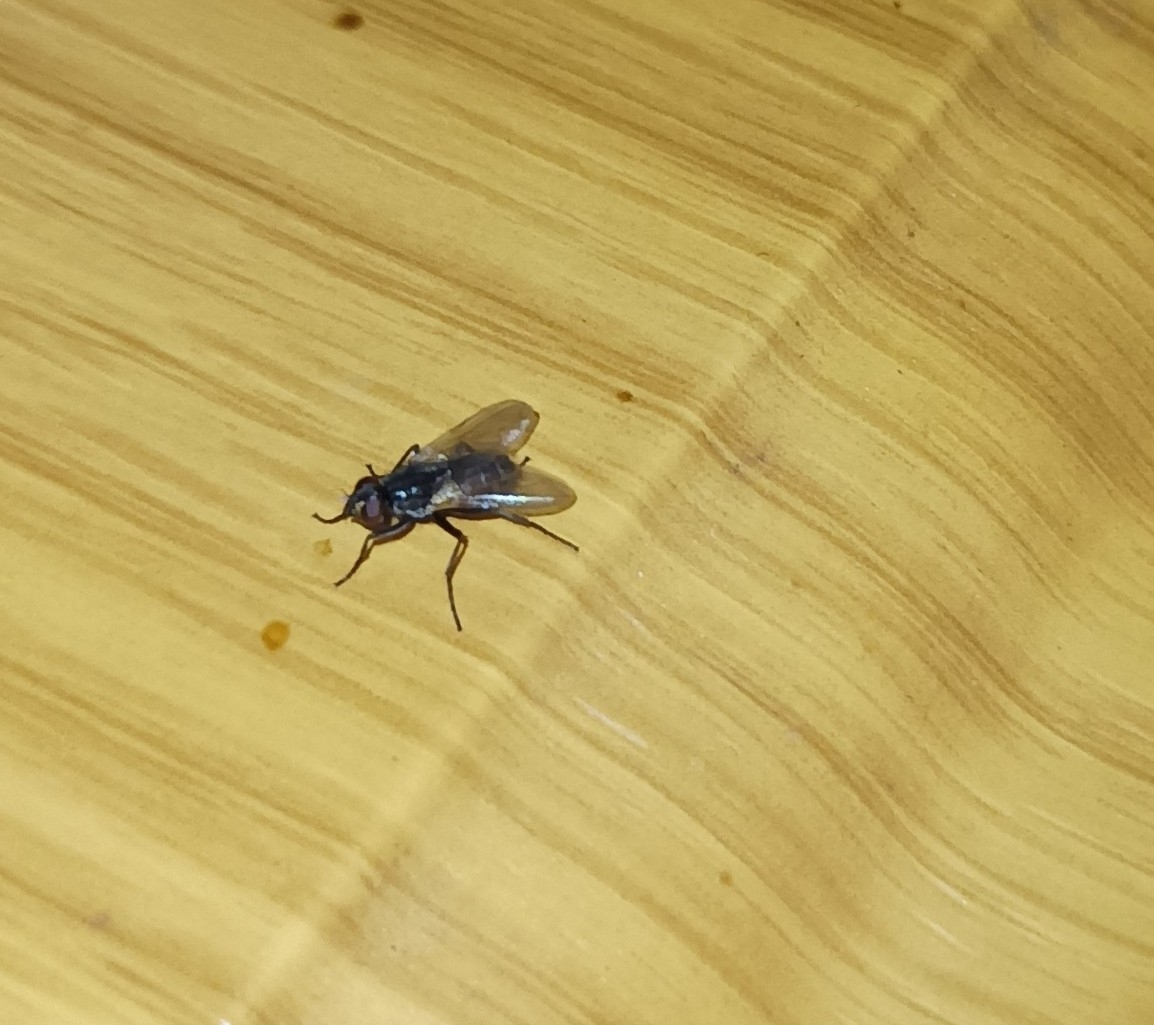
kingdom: Animalia
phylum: Arthropoda
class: Insecta
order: Diptera
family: Muscidae
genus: Musca
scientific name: Musca domestica
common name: House fly
